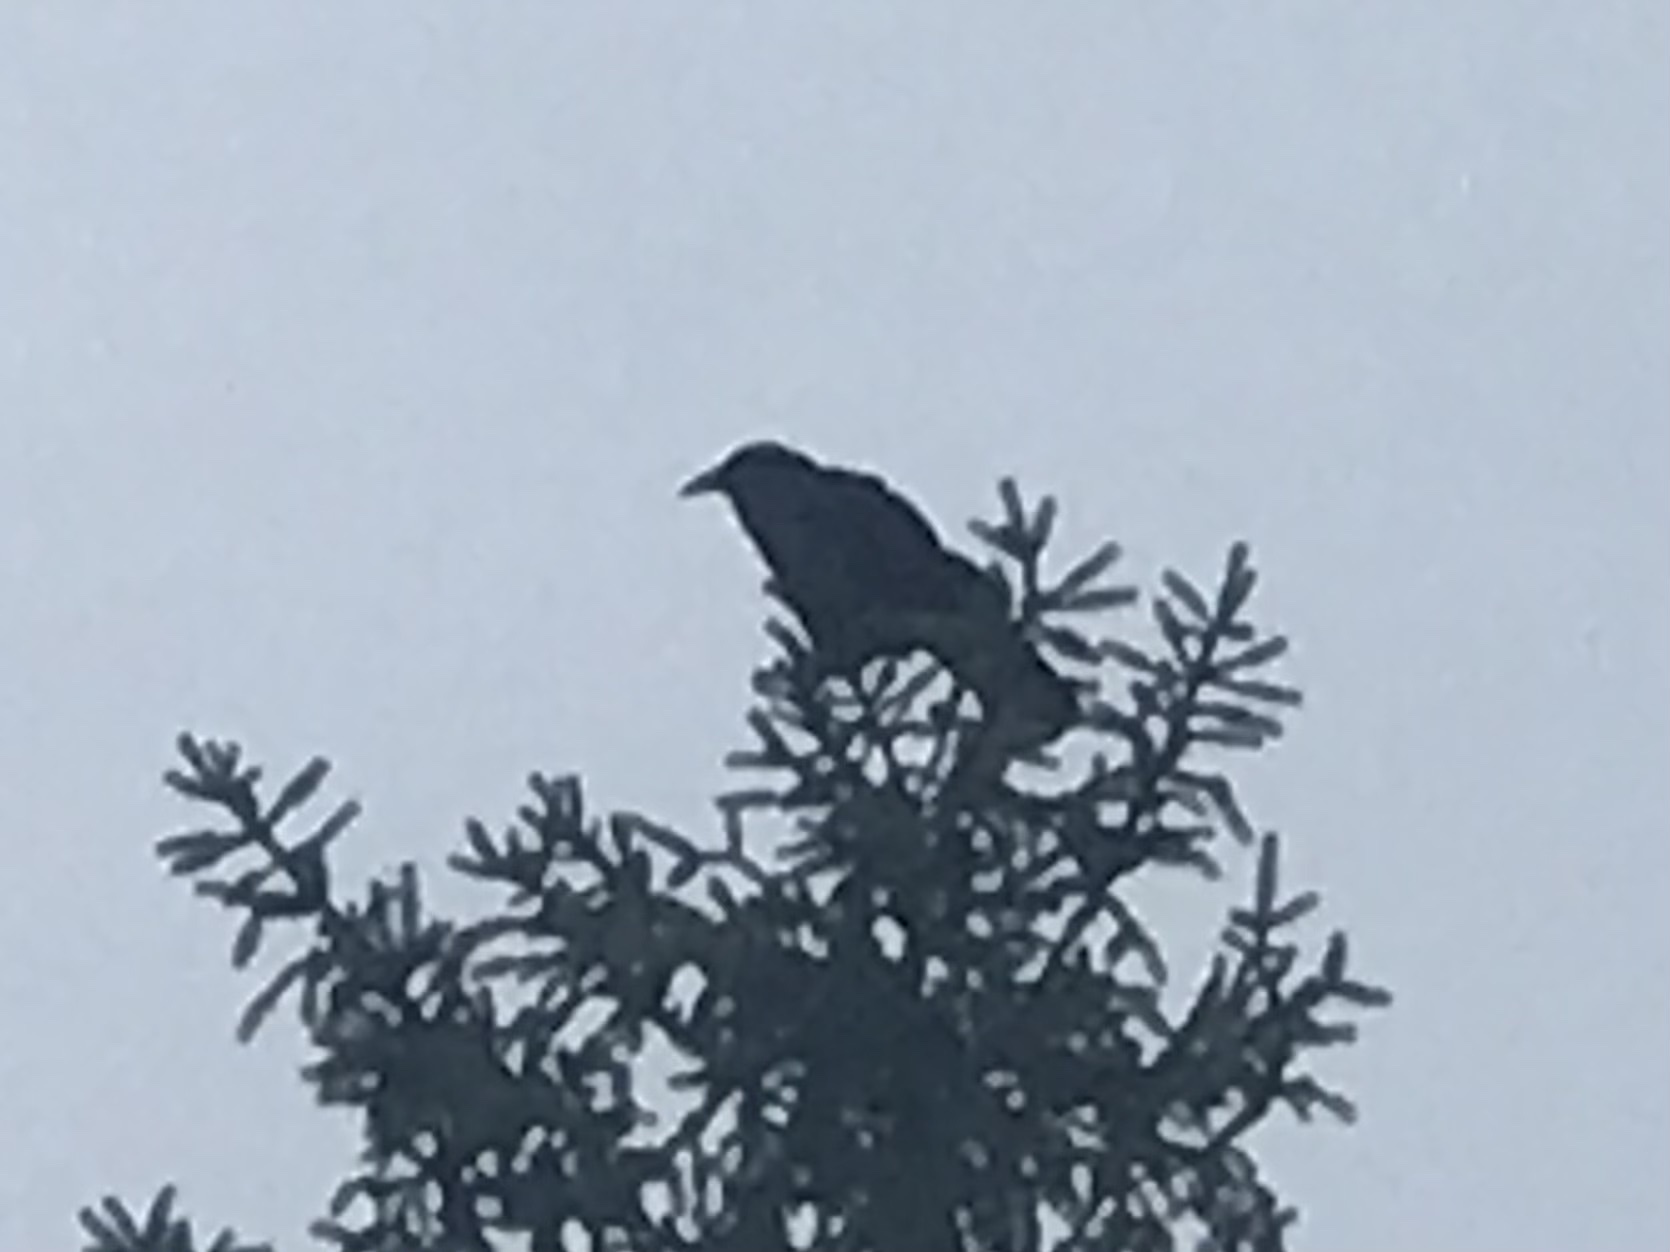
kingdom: Animalia
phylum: Chordata
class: Aves
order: Passeriformes
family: Corvidae
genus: Corvus
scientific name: Corvus corax
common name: Common raven
